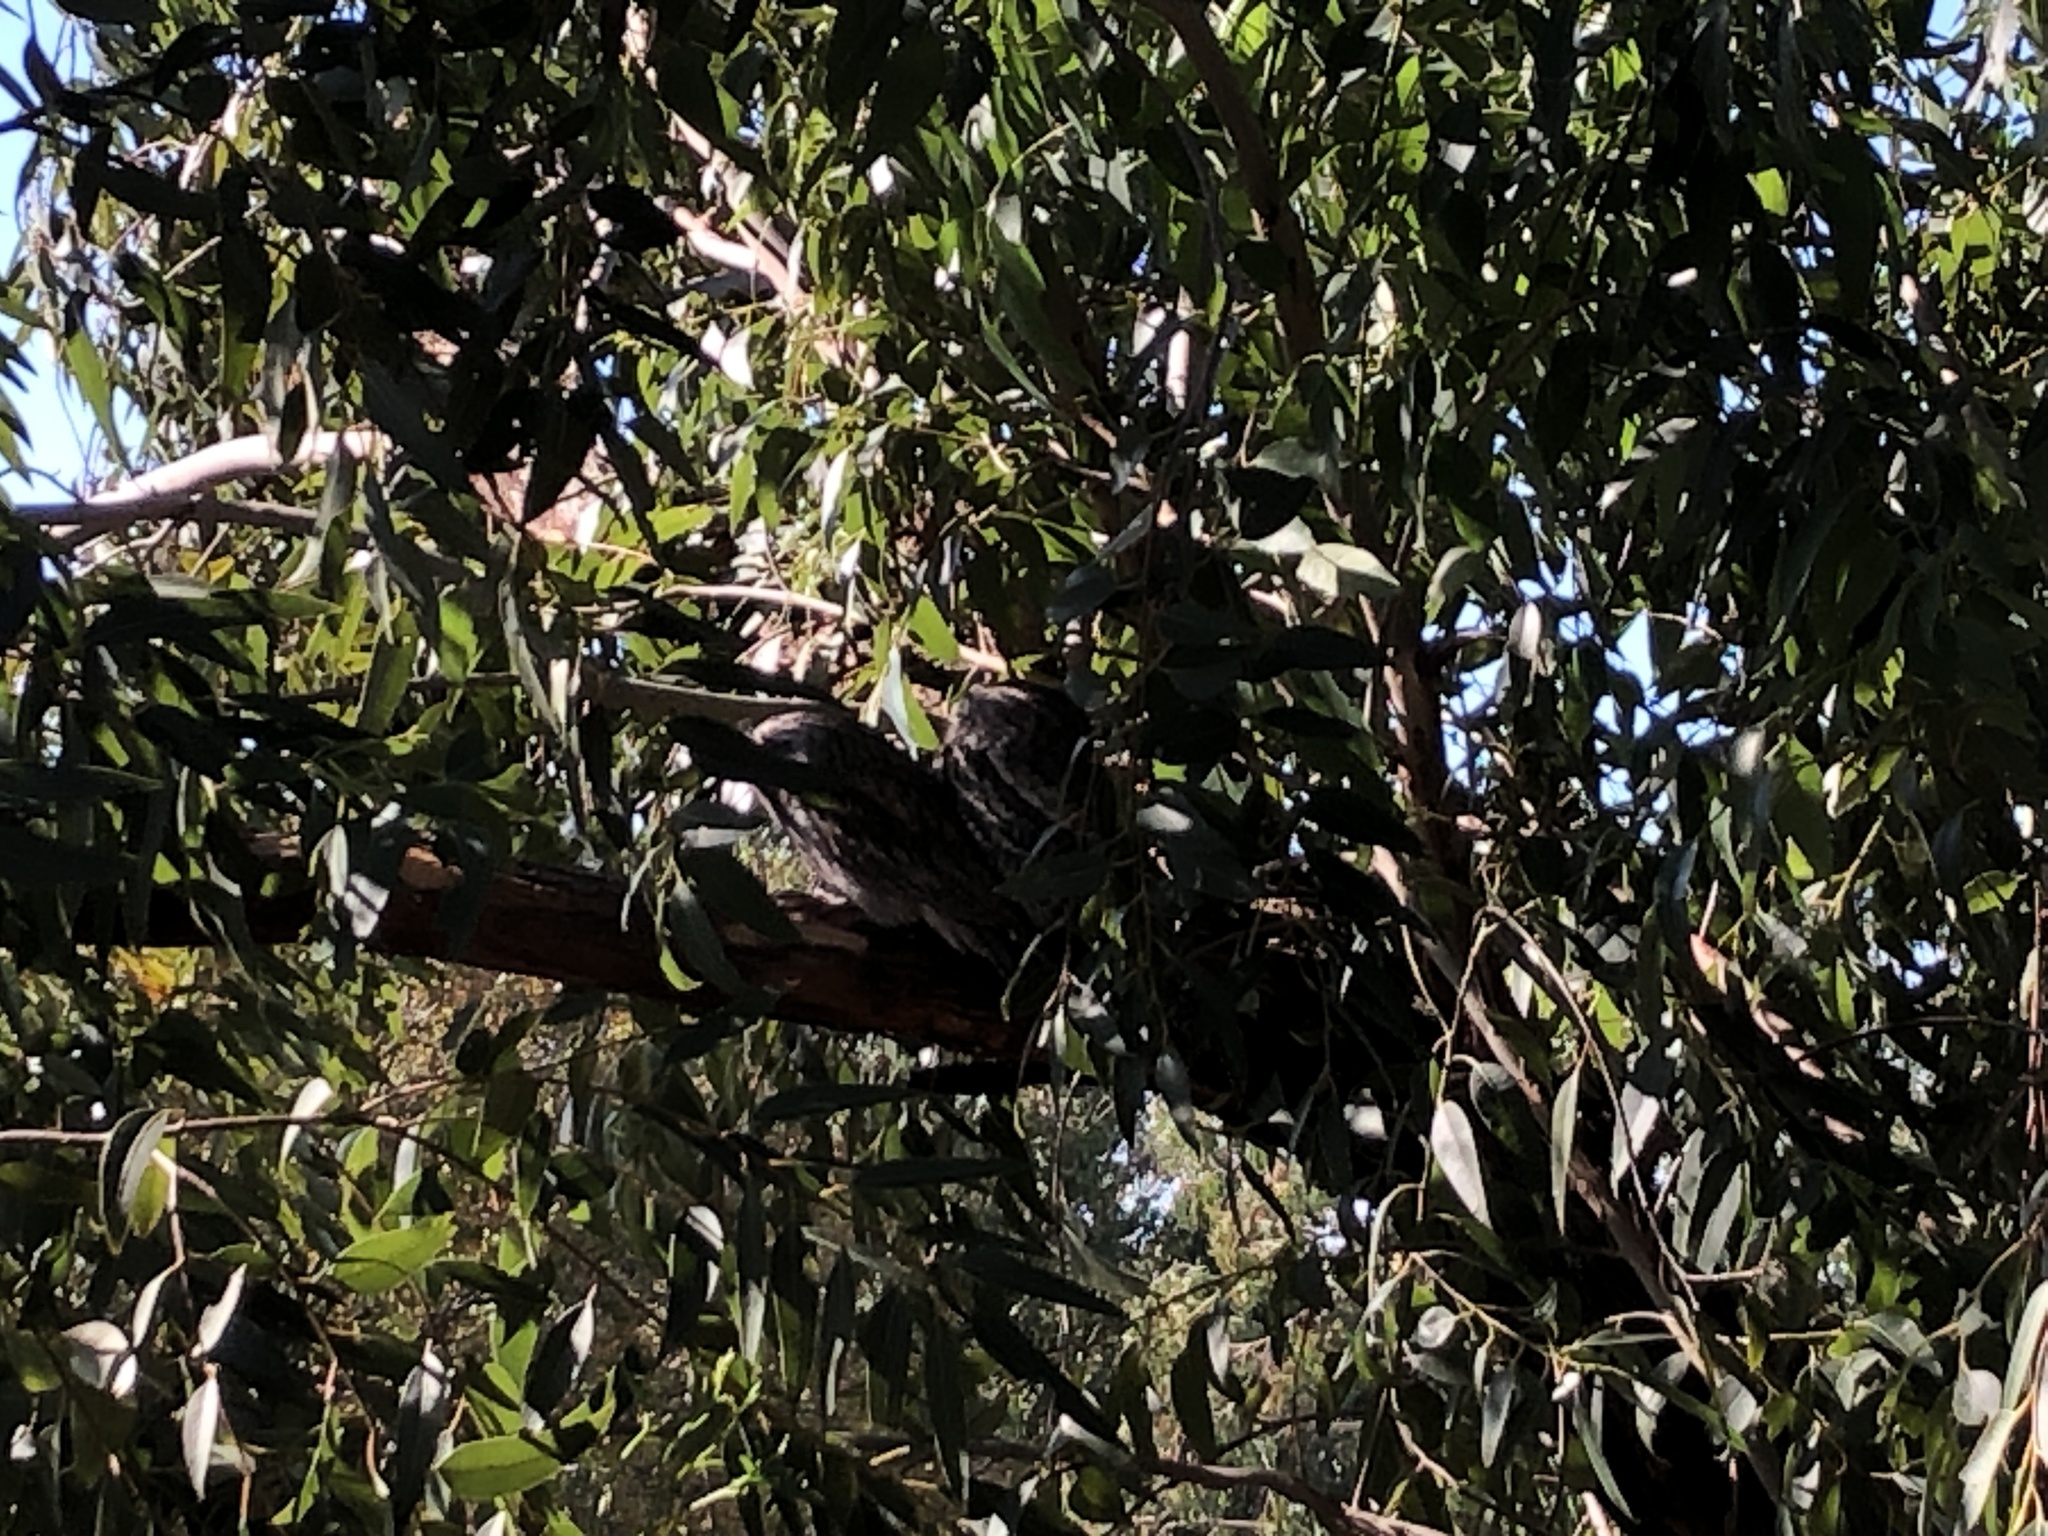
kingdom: Animalia
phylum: Chordata
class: Aves
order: Caprimulgiformes
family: Podargidae
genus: Podargus
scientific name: Podargus strigoides
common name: Tawny frogmouth
